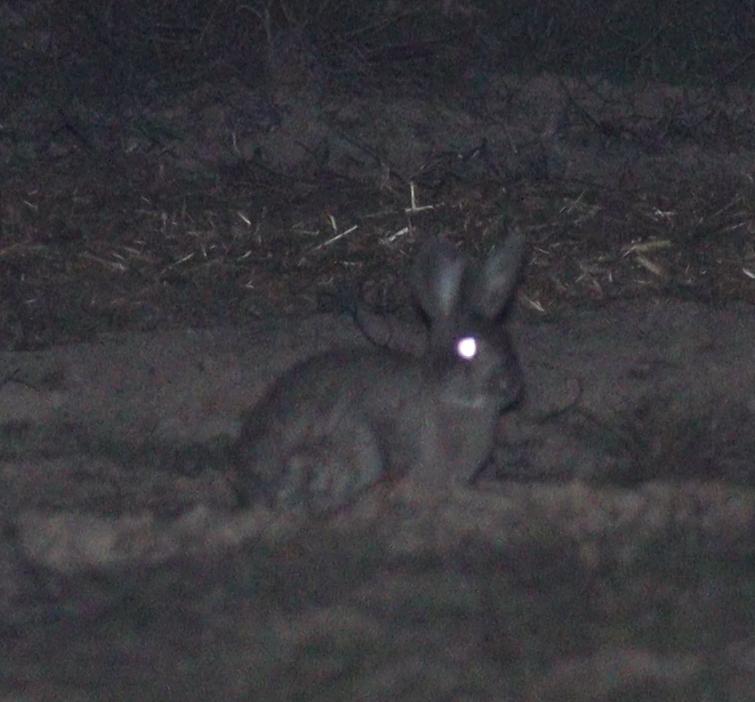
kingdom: Animalia
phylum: Chordata
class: Mammalia
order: Lagomorpha
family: Leporidae
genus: Oryctolagus
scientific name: Oryctolagus cuniculus
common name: European rabbit
